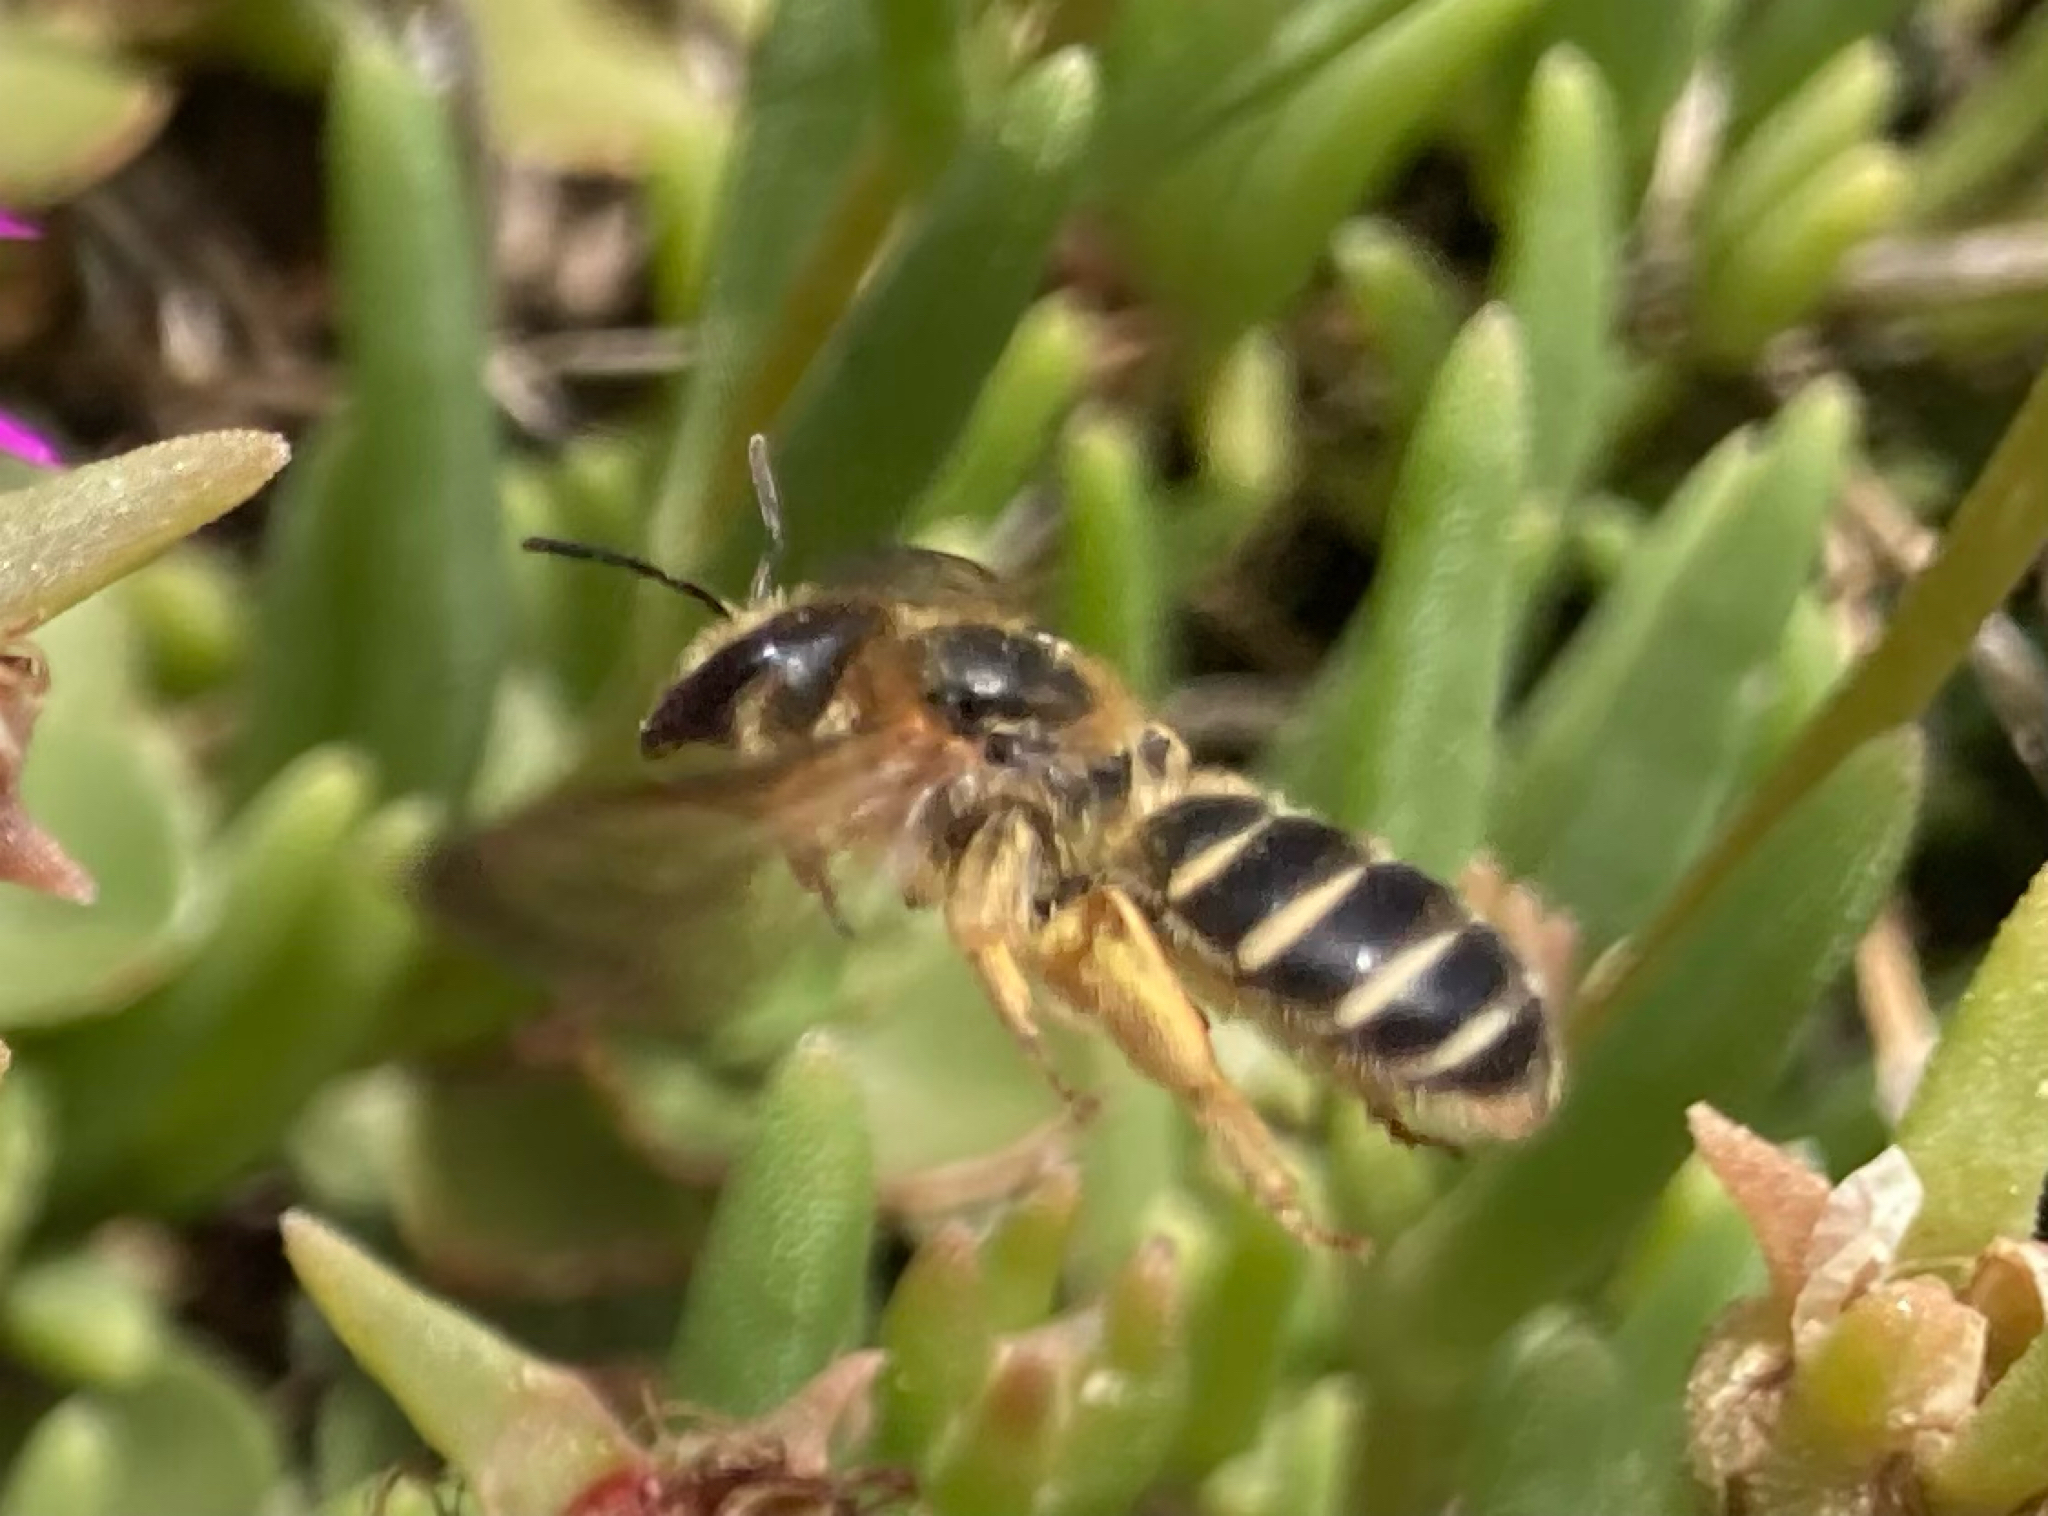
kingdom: Animalia
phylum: Arthropoda
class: Insecta
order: Hymenoptera
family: Halictidae
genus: Halictus
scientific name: Halictus quadricinctus
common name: Giant furrow bee
